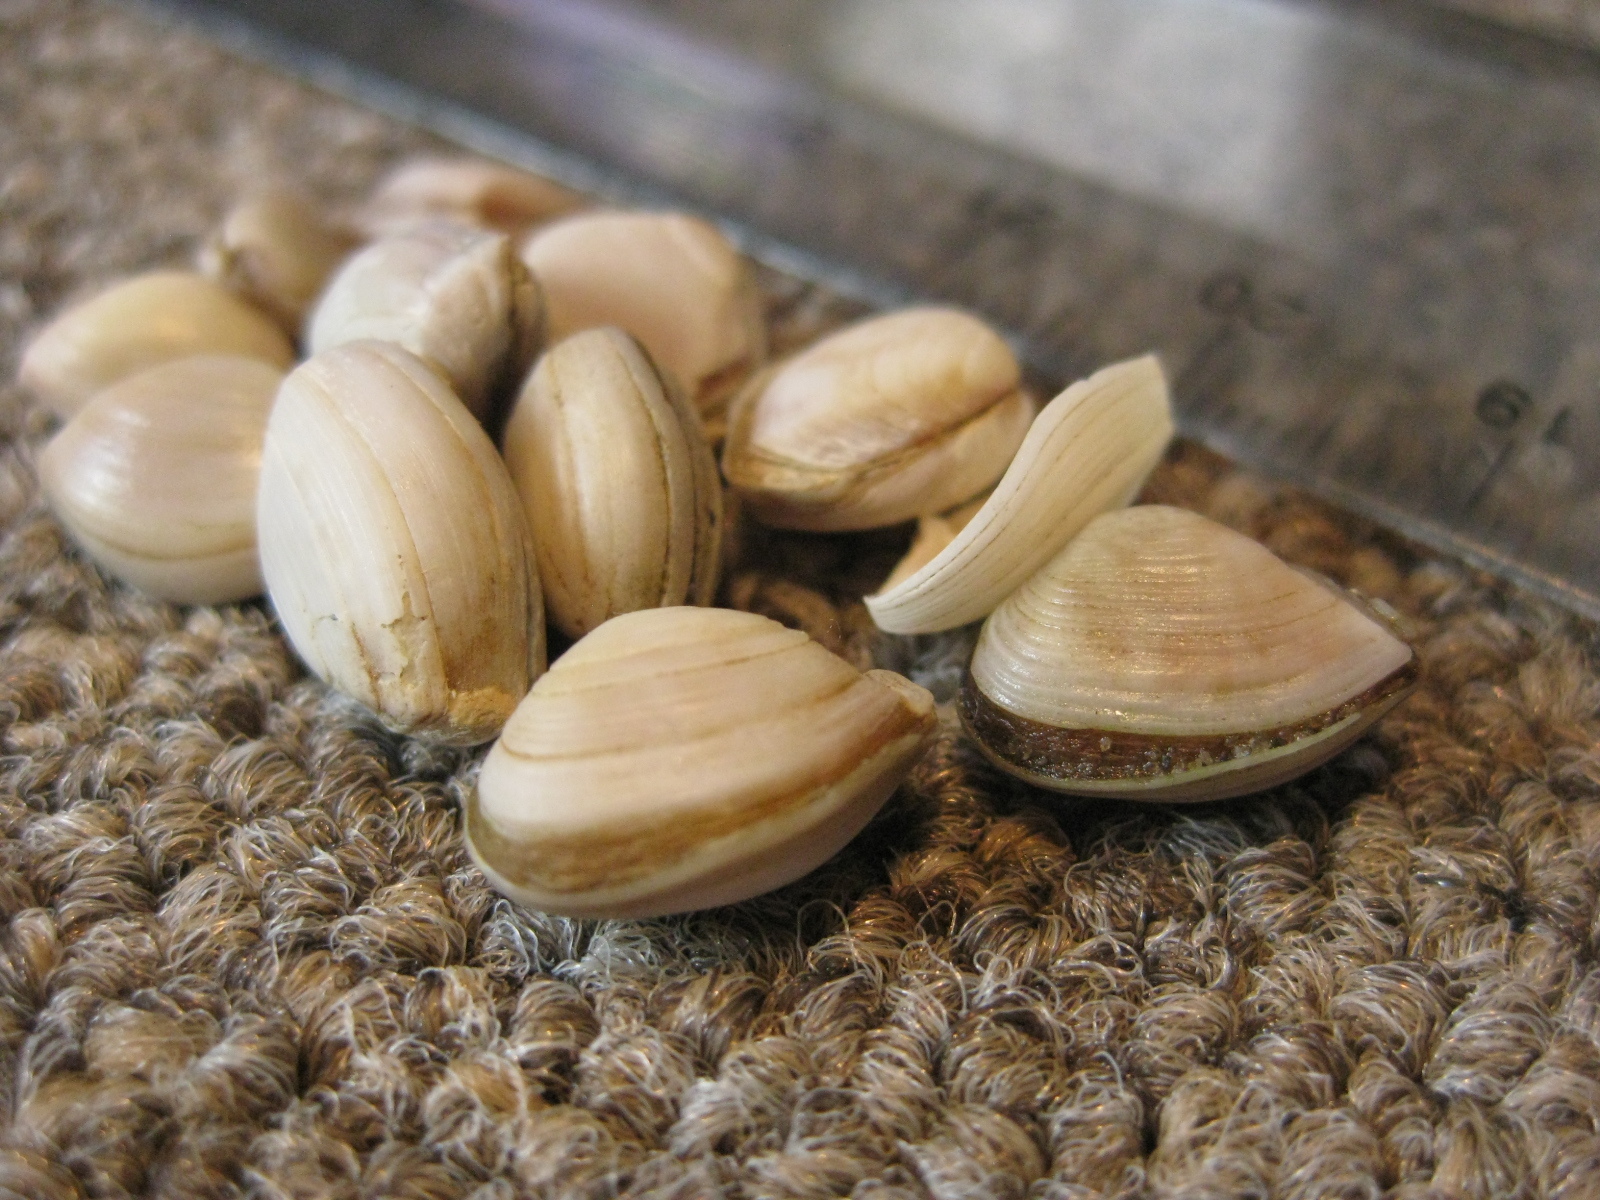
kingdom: Animalia
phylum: Mollusca
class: Bivalvia
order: Myida
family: Corbulidae
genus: Corbula
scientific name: Corbula zelandica
